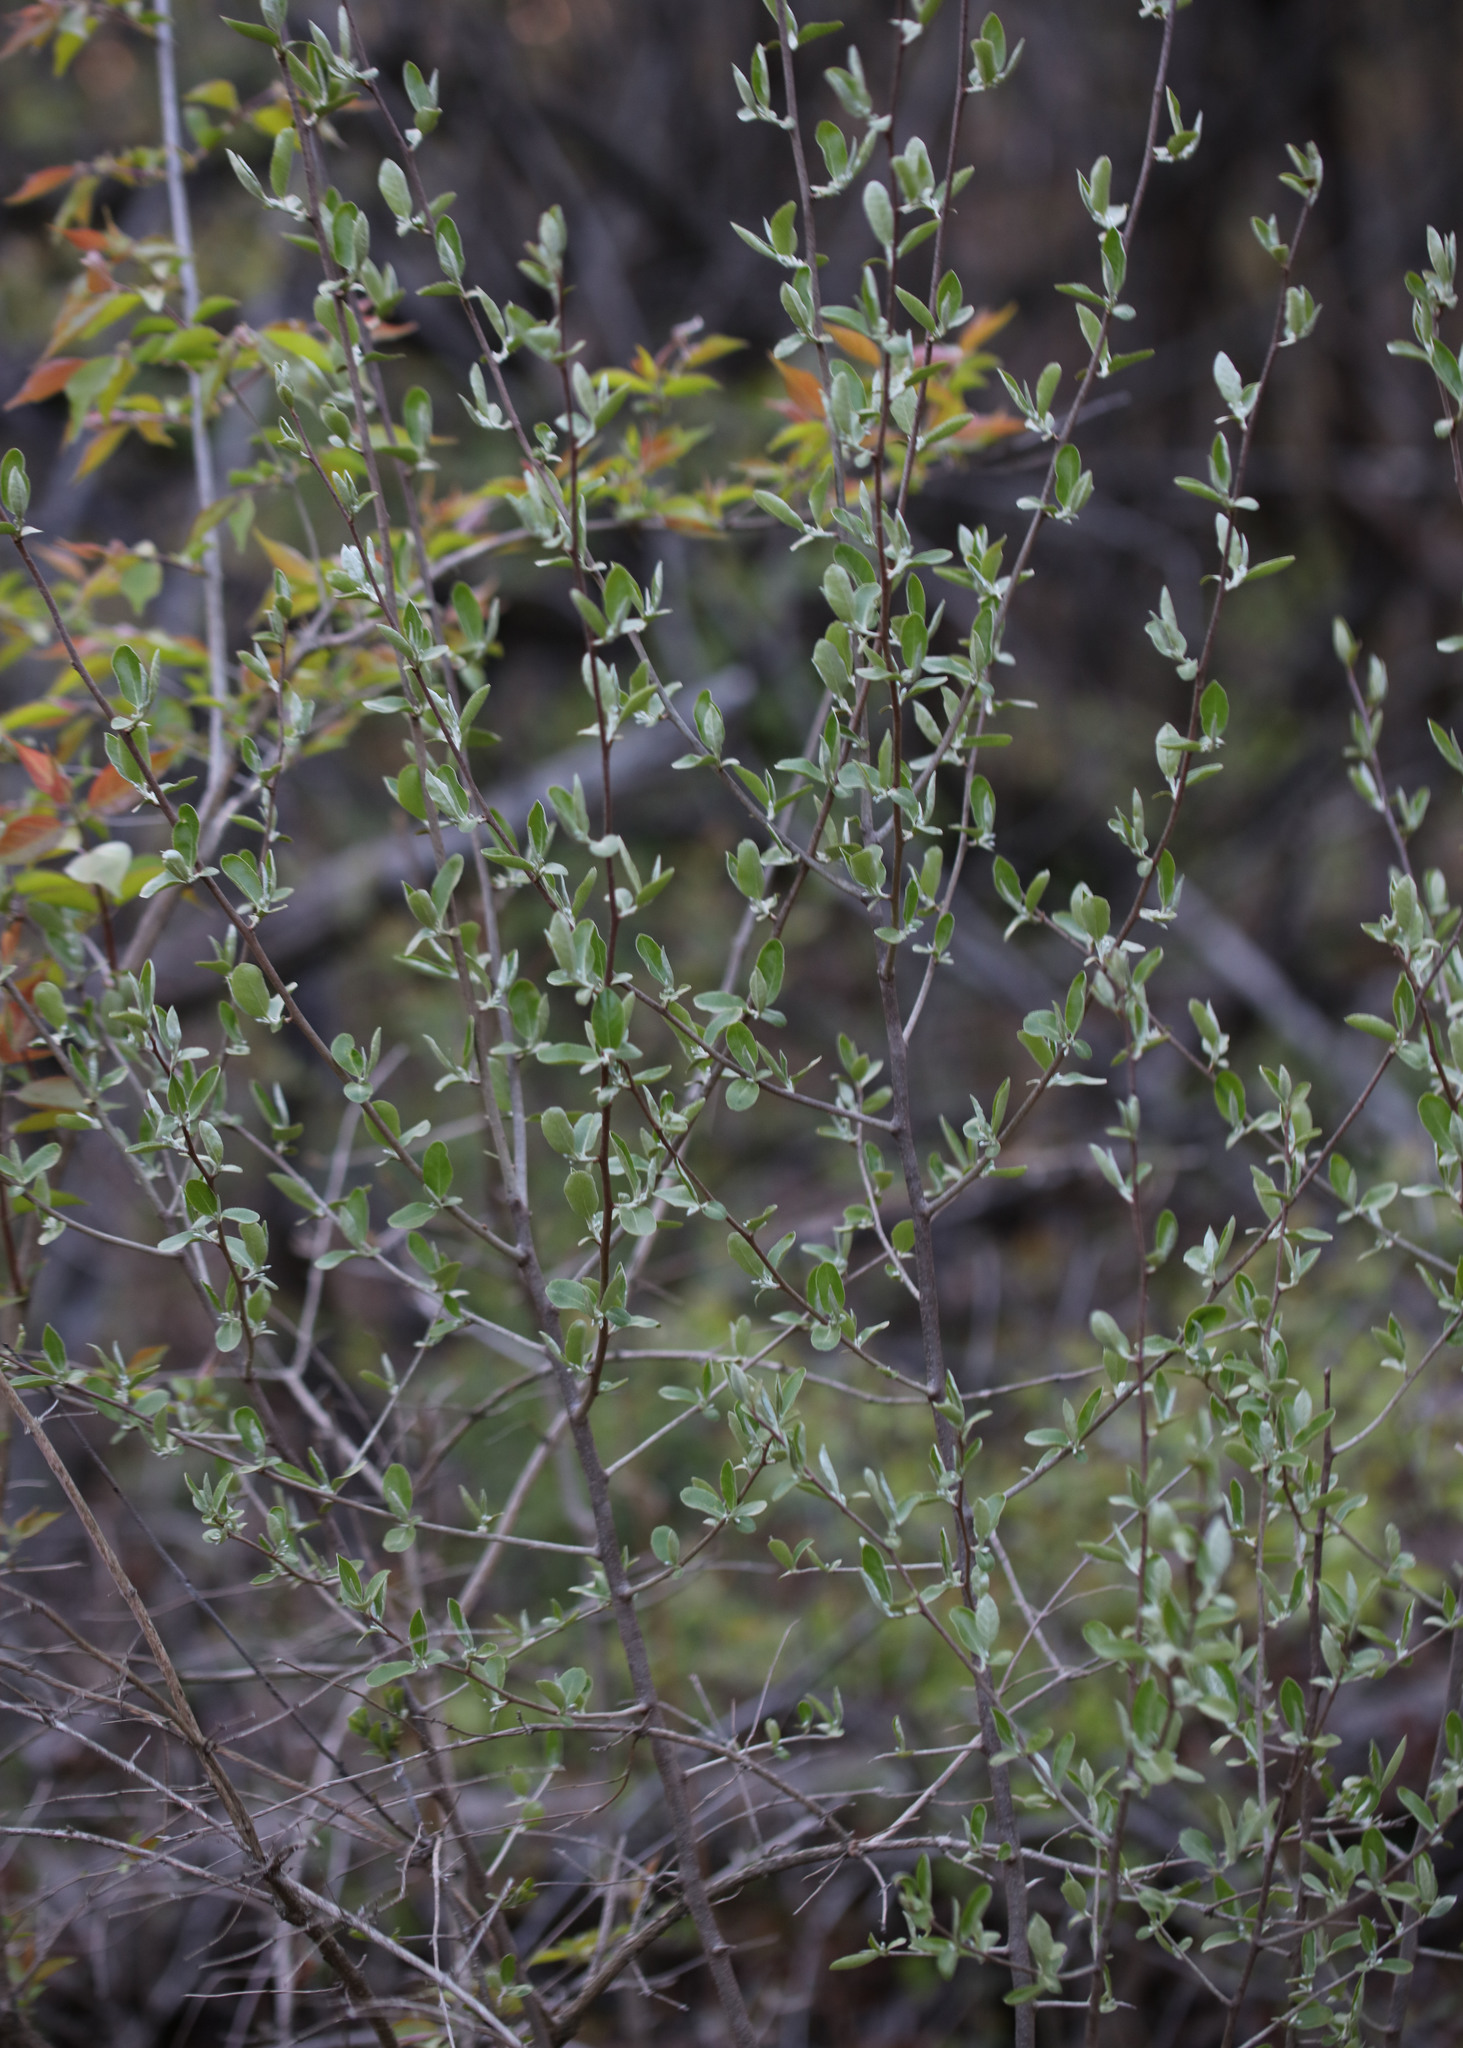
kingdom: Plantae
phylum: Tracheophyta
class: Magnoliopsida
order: Rosales
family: Elaeagnaceae
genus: Elaeagnus
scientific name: Elaeagnus umbellata
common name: Autumn olive
